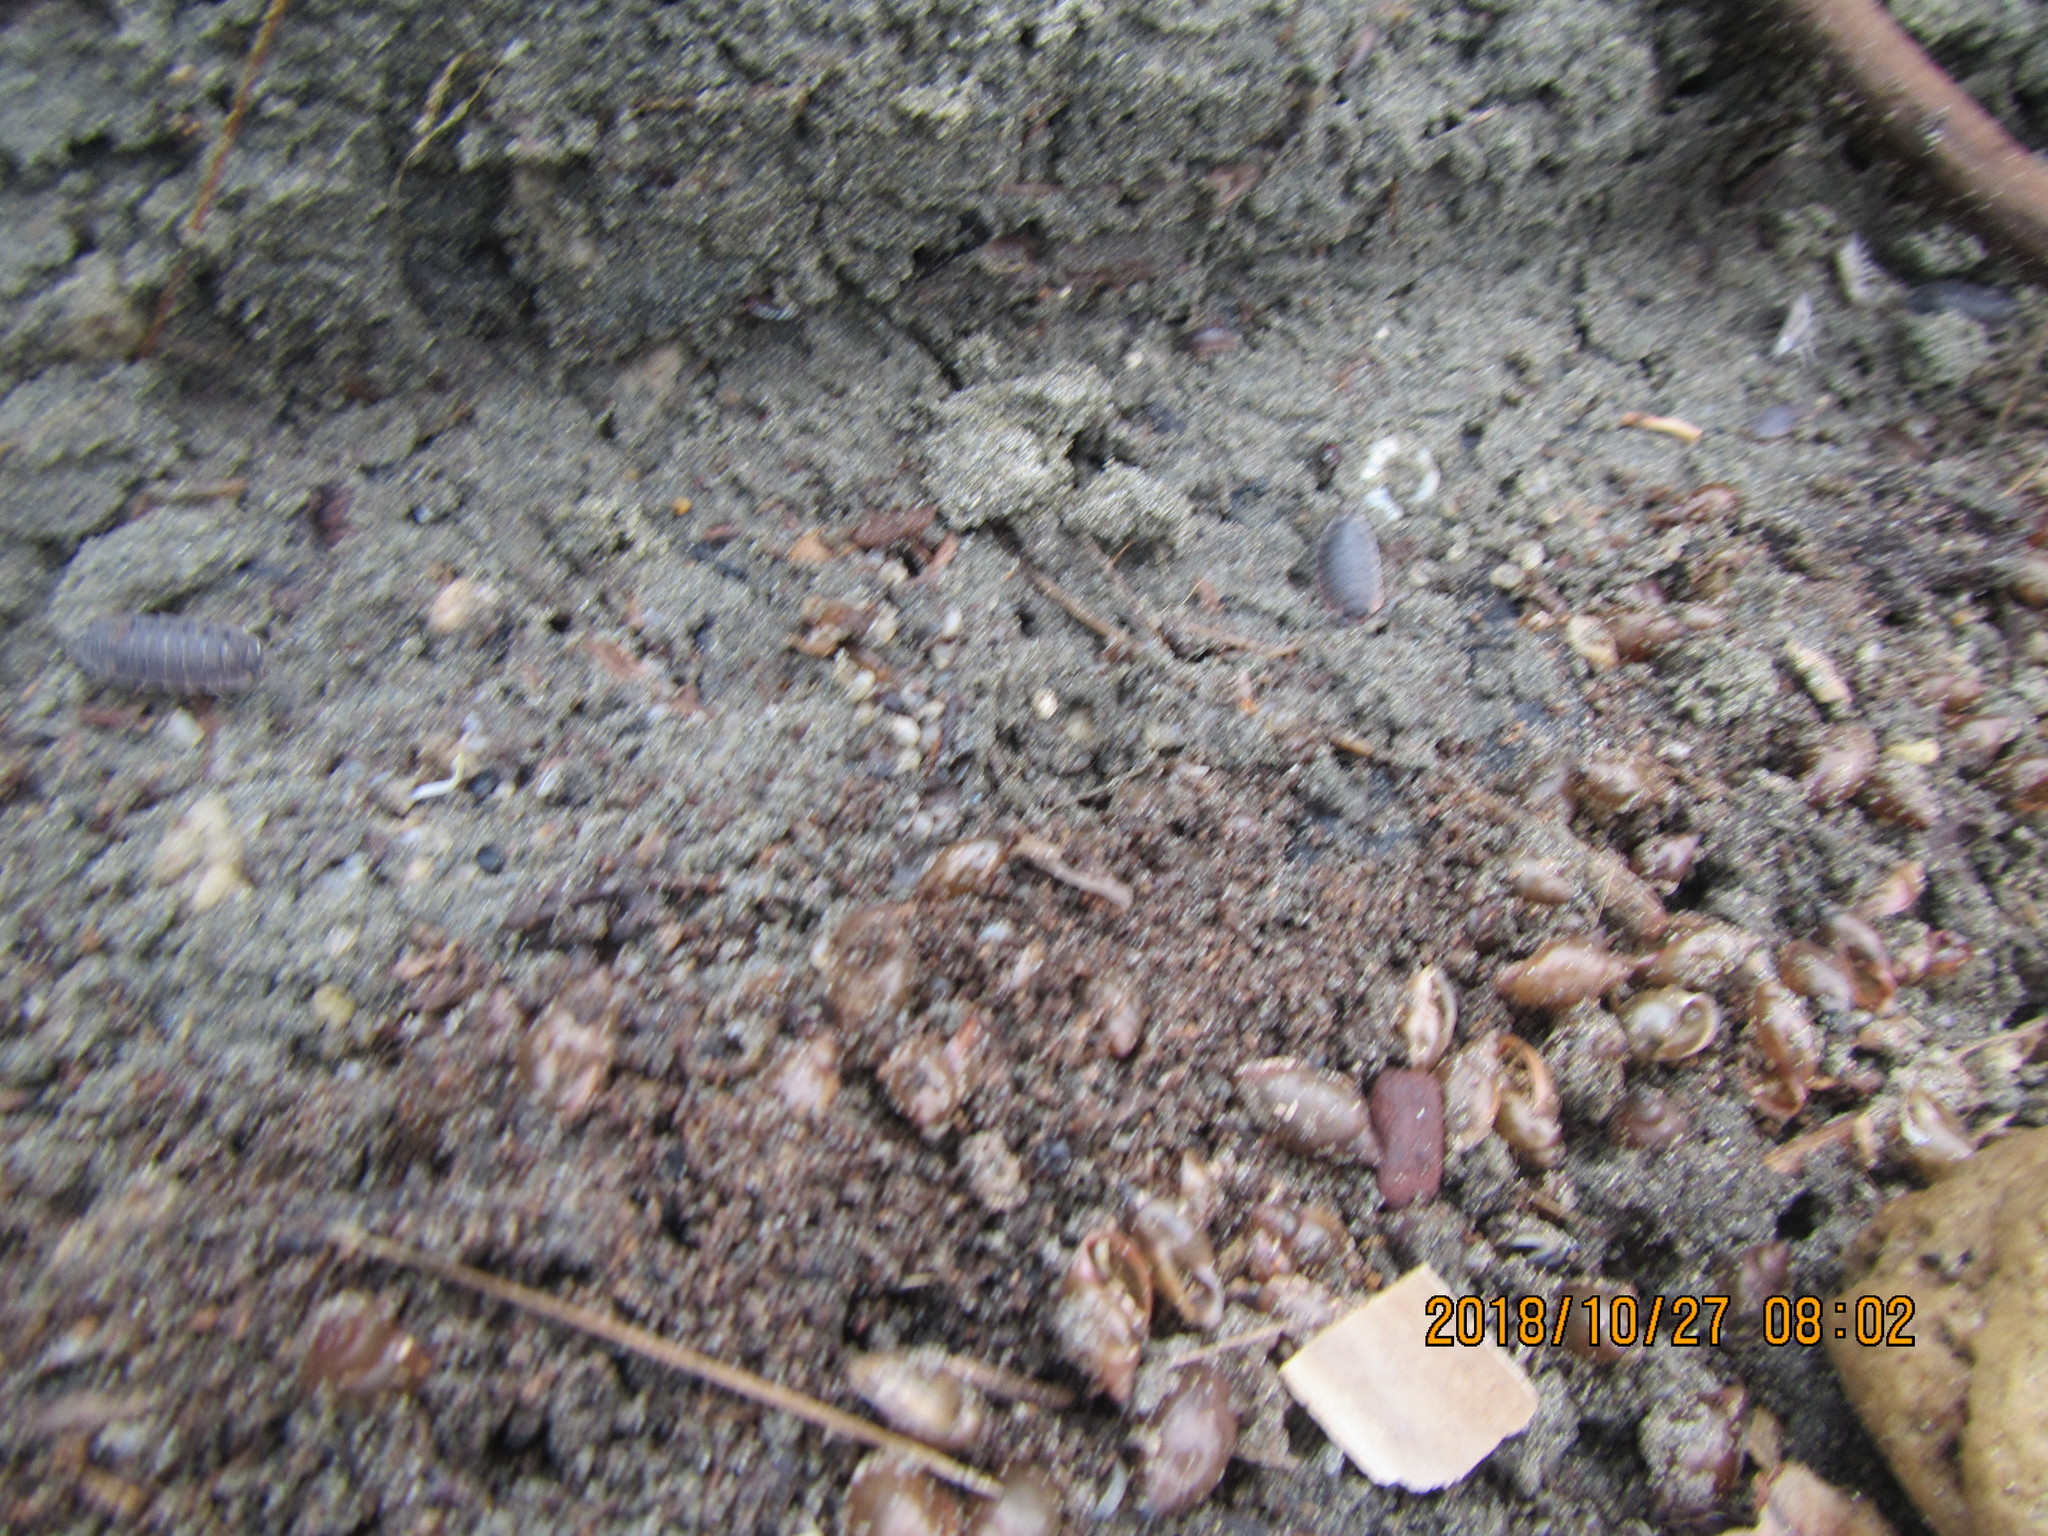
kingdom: Animalia
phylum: Mollusca
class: Gastropoda
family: Physidae
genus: Physella
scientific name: Physella acuta
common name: European physa
